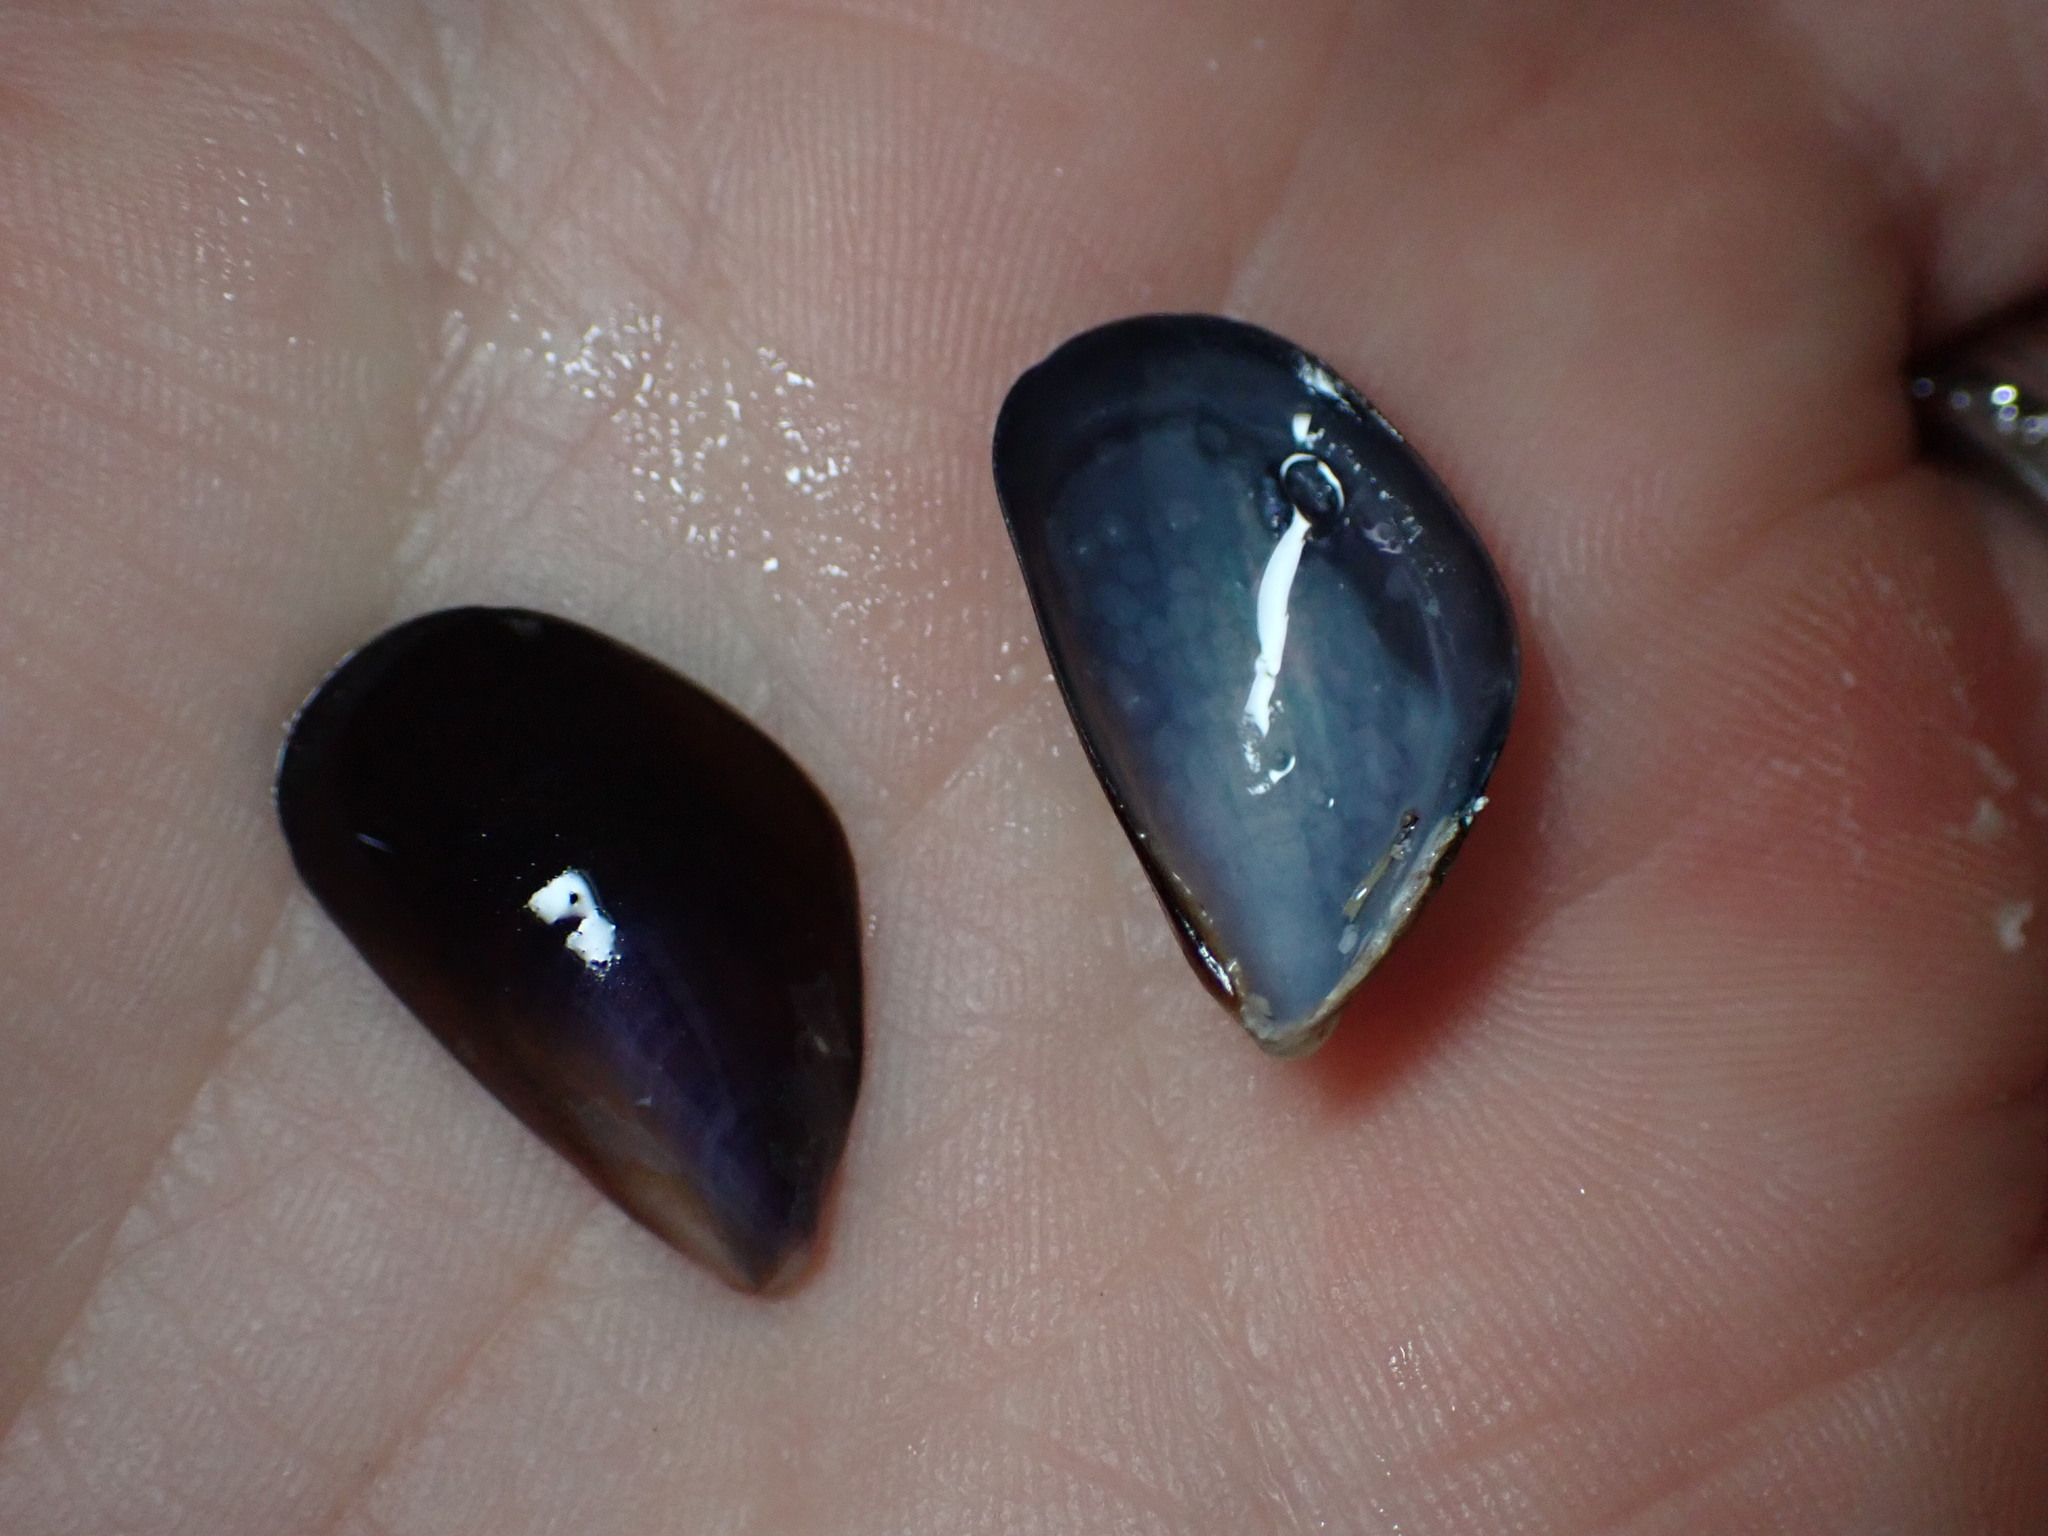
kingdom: Animalia
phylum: Mollusca
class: Bivalvia
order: Mytilida
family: Mytilidae
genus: Mytilus
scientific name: Mytilus galloprovincialis
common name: Mediterranean mussel
